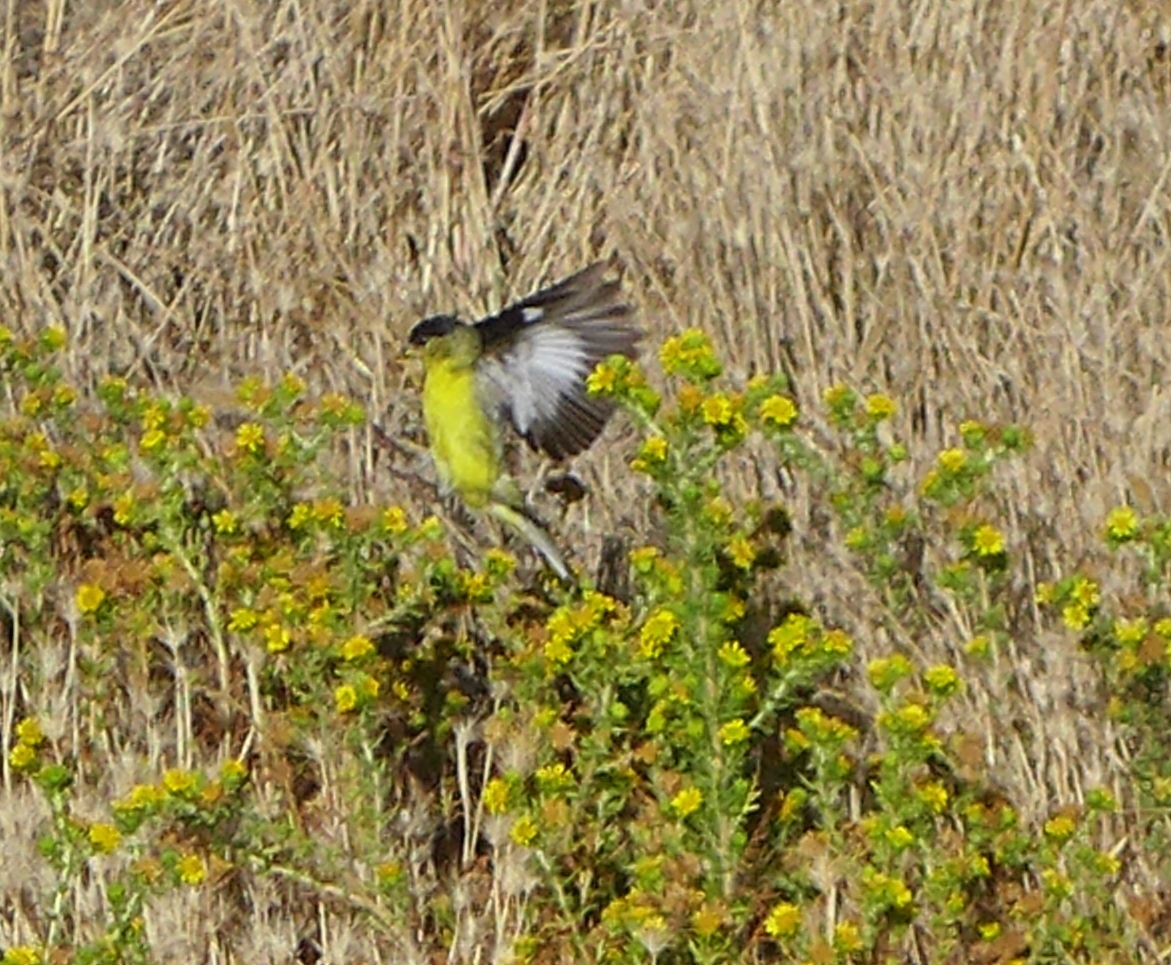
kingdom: Animalia
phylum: Chordata
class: Aves
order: Passeriformes
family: Fringillidae
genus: Spinus
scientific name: Spinus psaltria
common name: Lesser goldfinch
